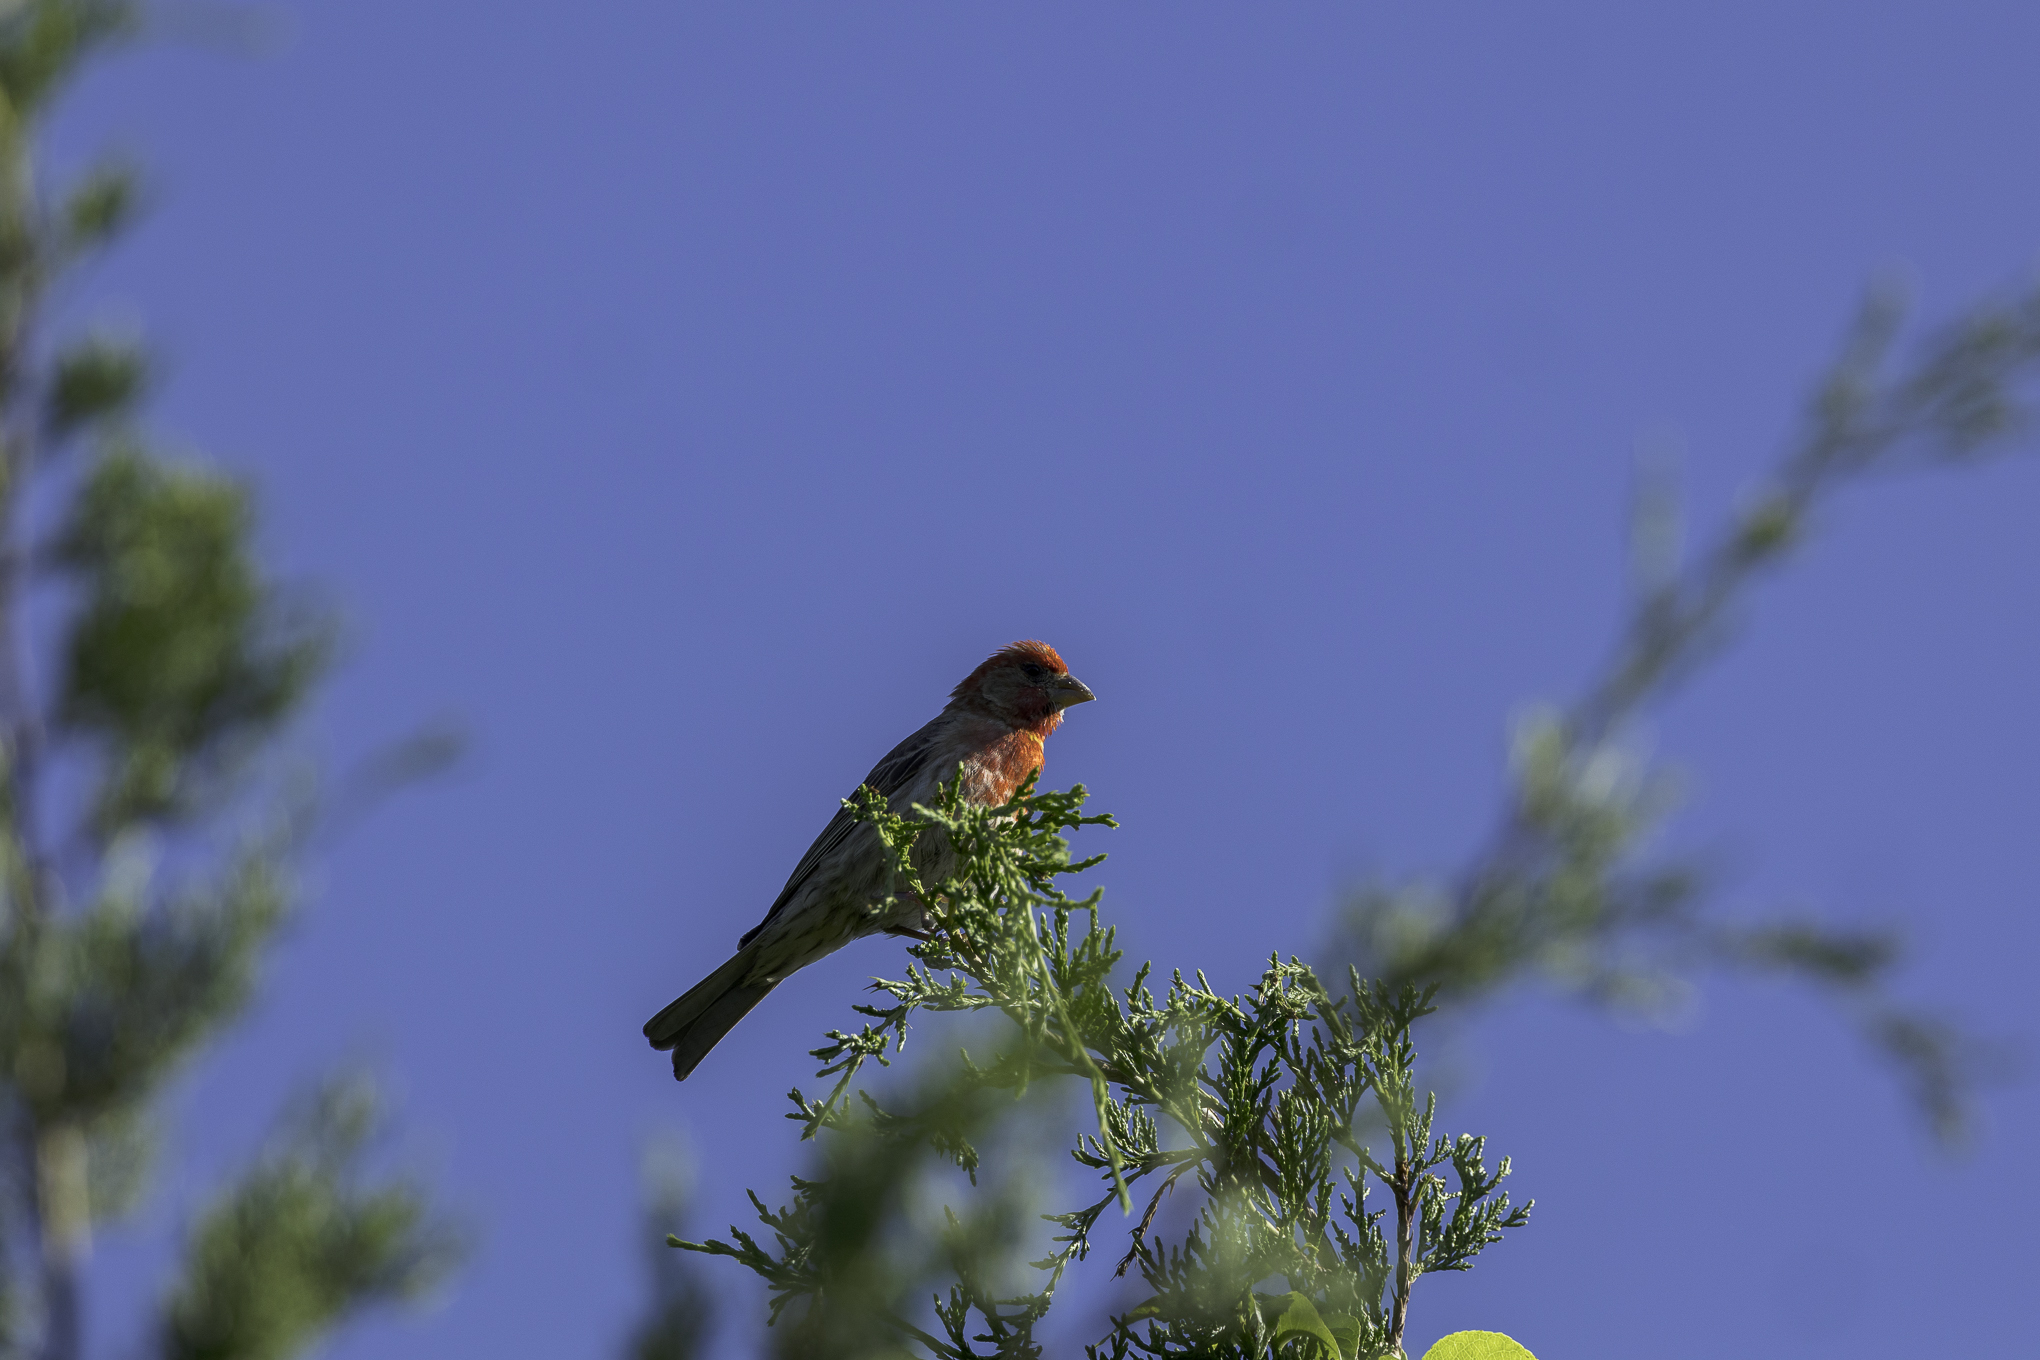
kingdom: Animalia
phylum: Chordata
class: Aves
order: Passeriformes
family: Fringillidae
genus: Haemorhous
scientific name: Haemorhous mexicanus
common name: House finch
